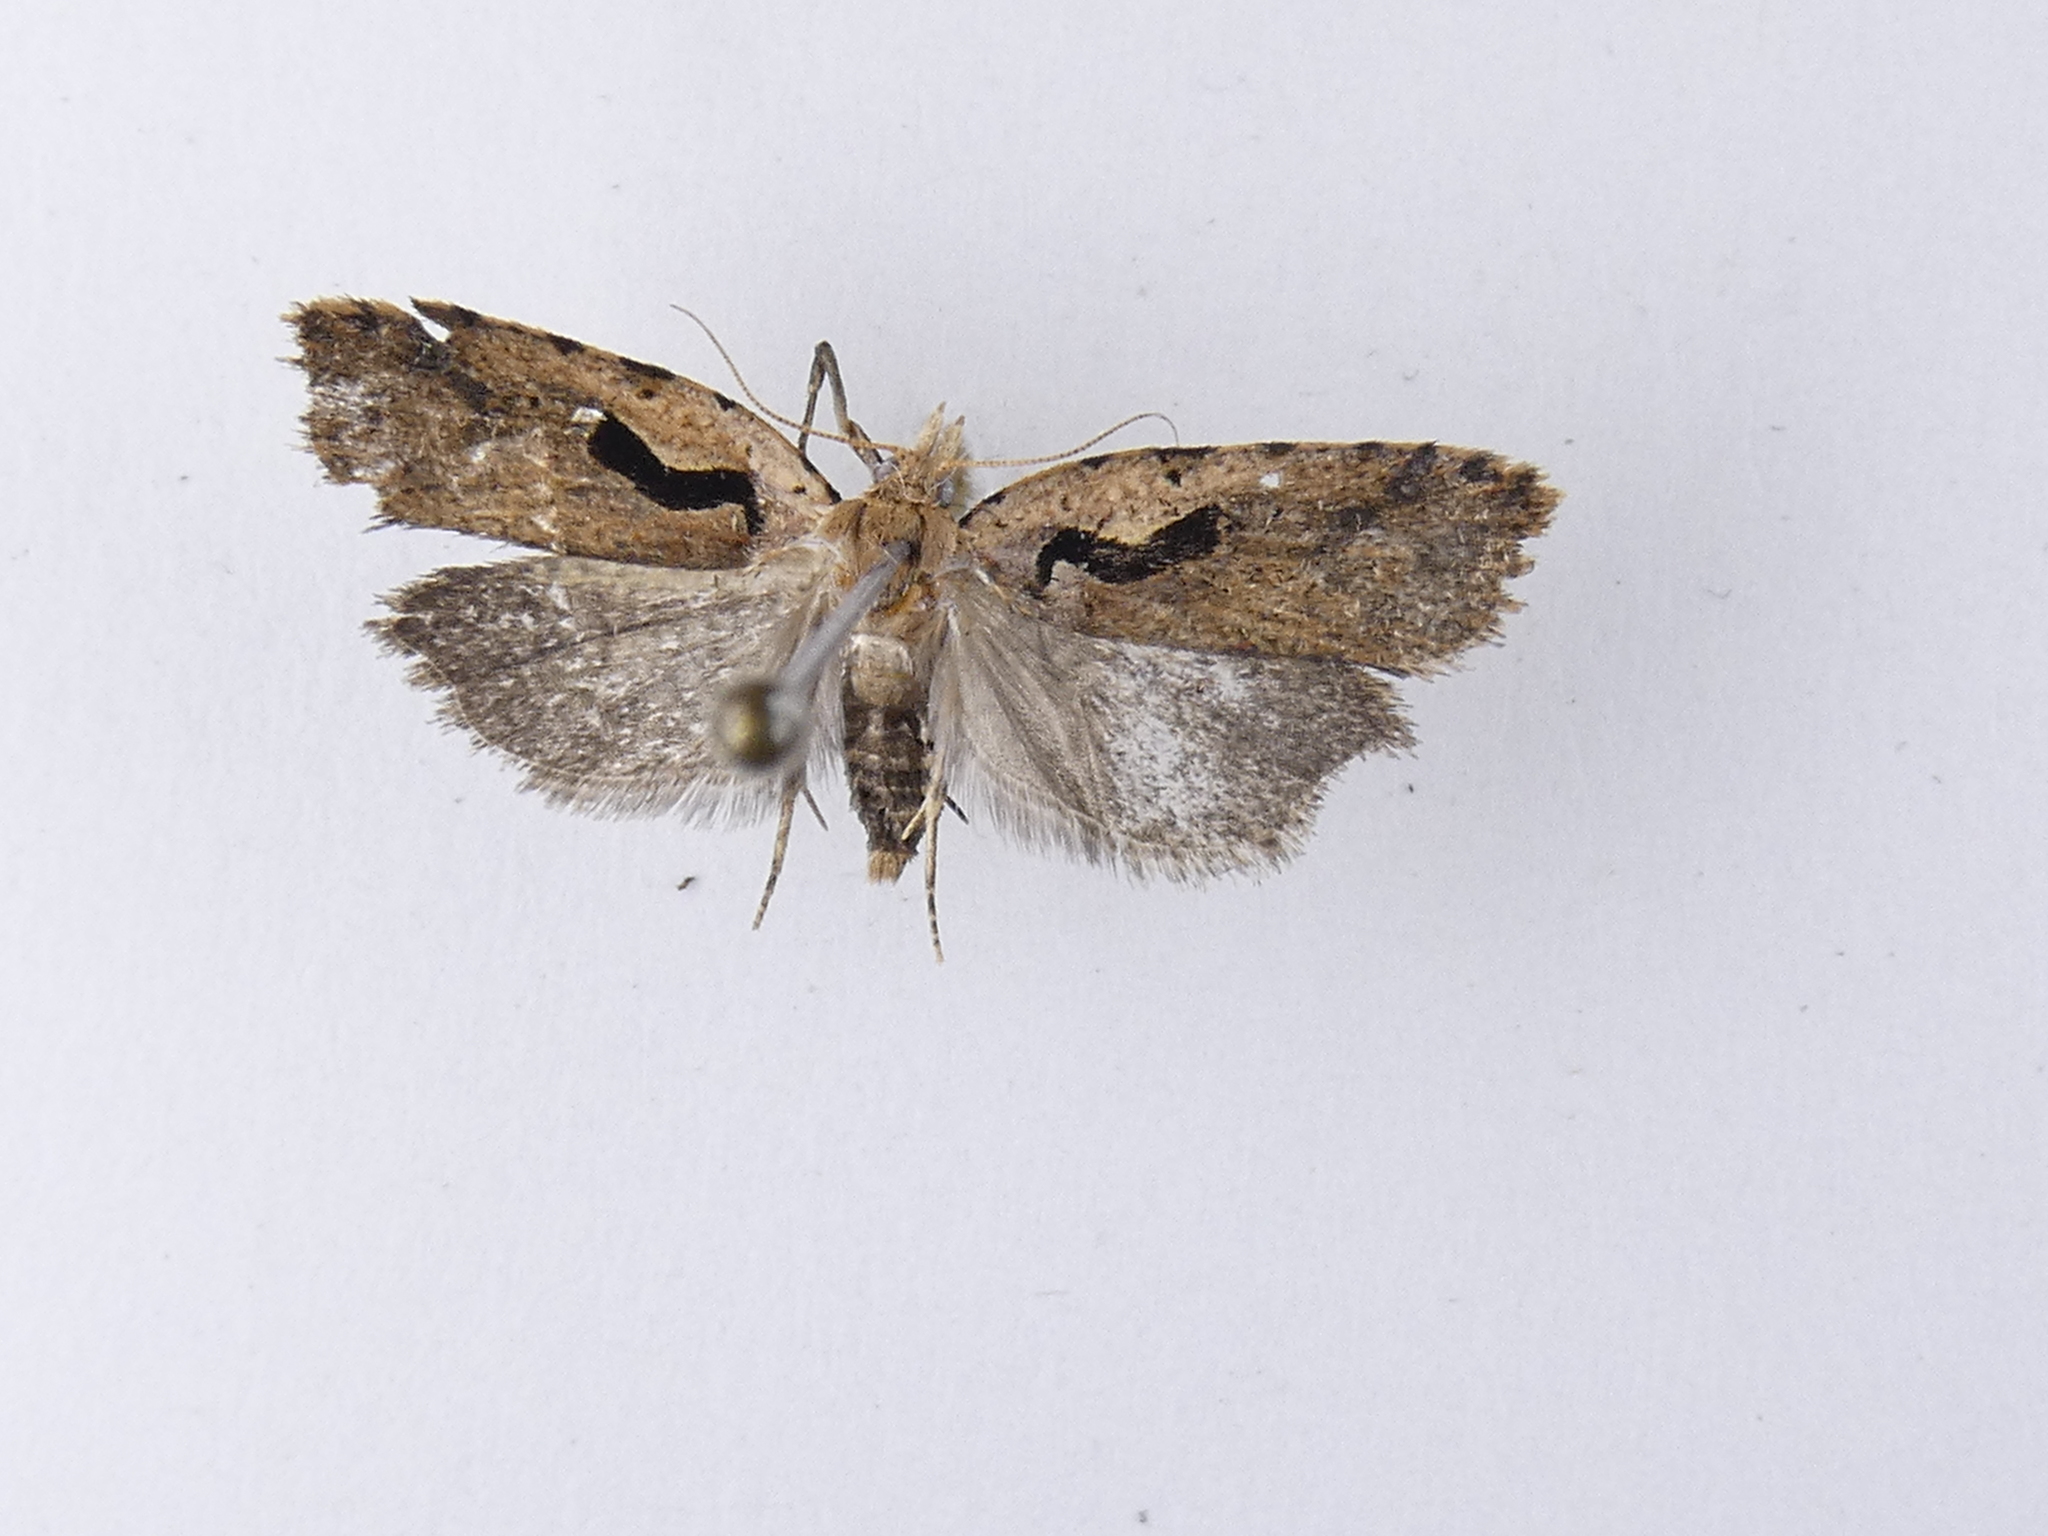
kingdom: Animalia
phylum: Arthropoda
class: Insecta
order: Lepidoptera
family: Tortricidae
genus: Cnephasia
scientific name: Cnephasia jactatana
